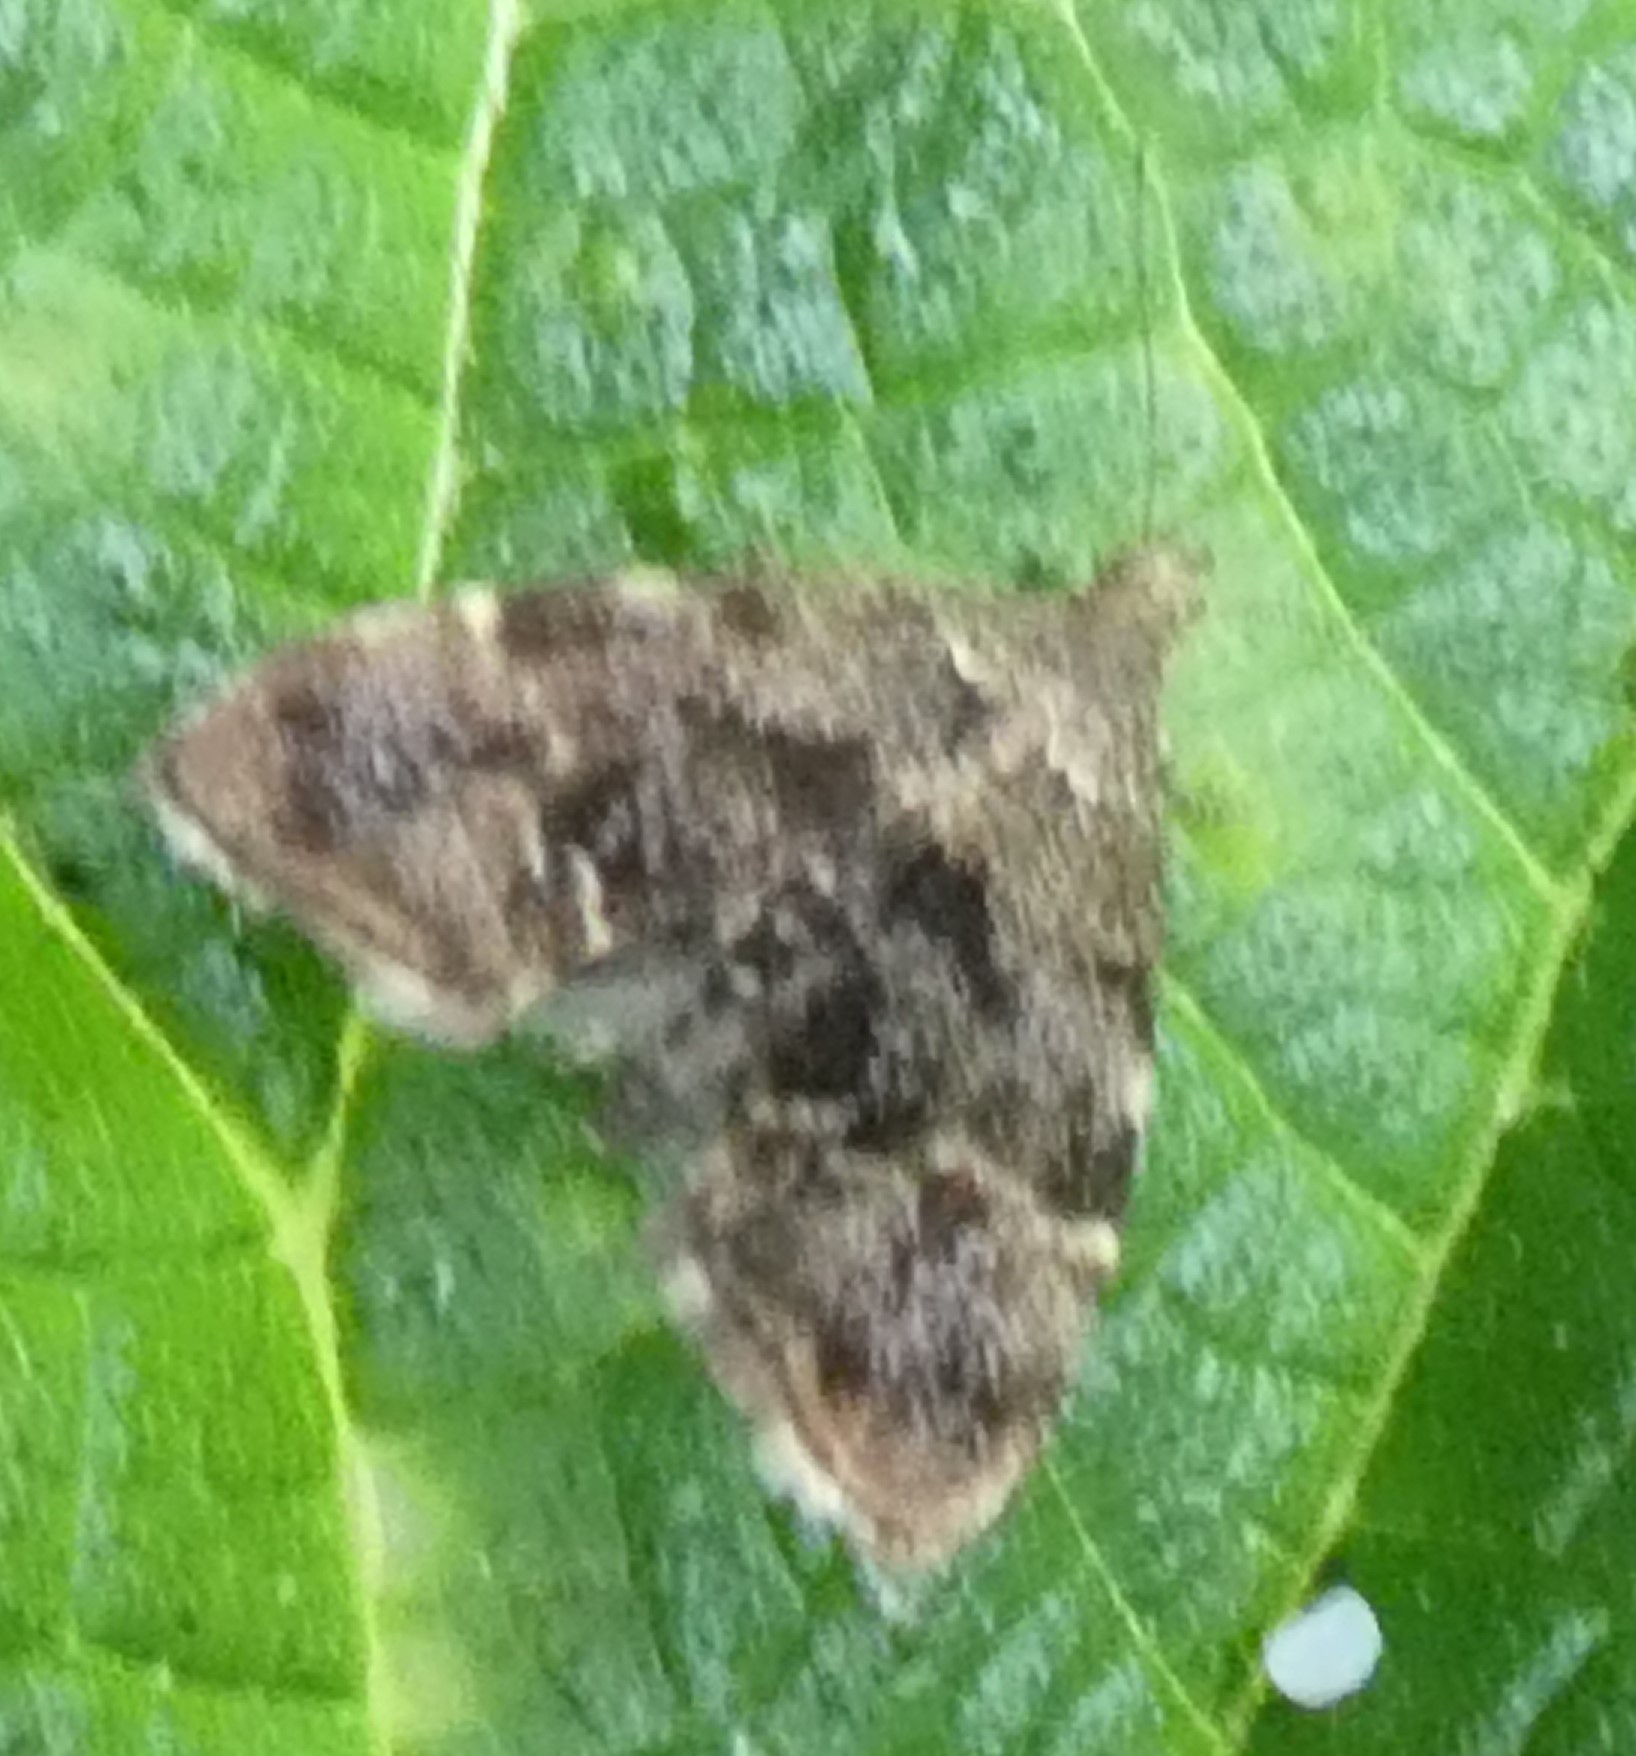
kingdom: Animalia
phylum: Arthropoda
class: Insecta
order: Lepidoptera
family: Choreutidae
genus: Anthophila
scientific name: Anthophila fabriciana
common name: Nettle-tap
